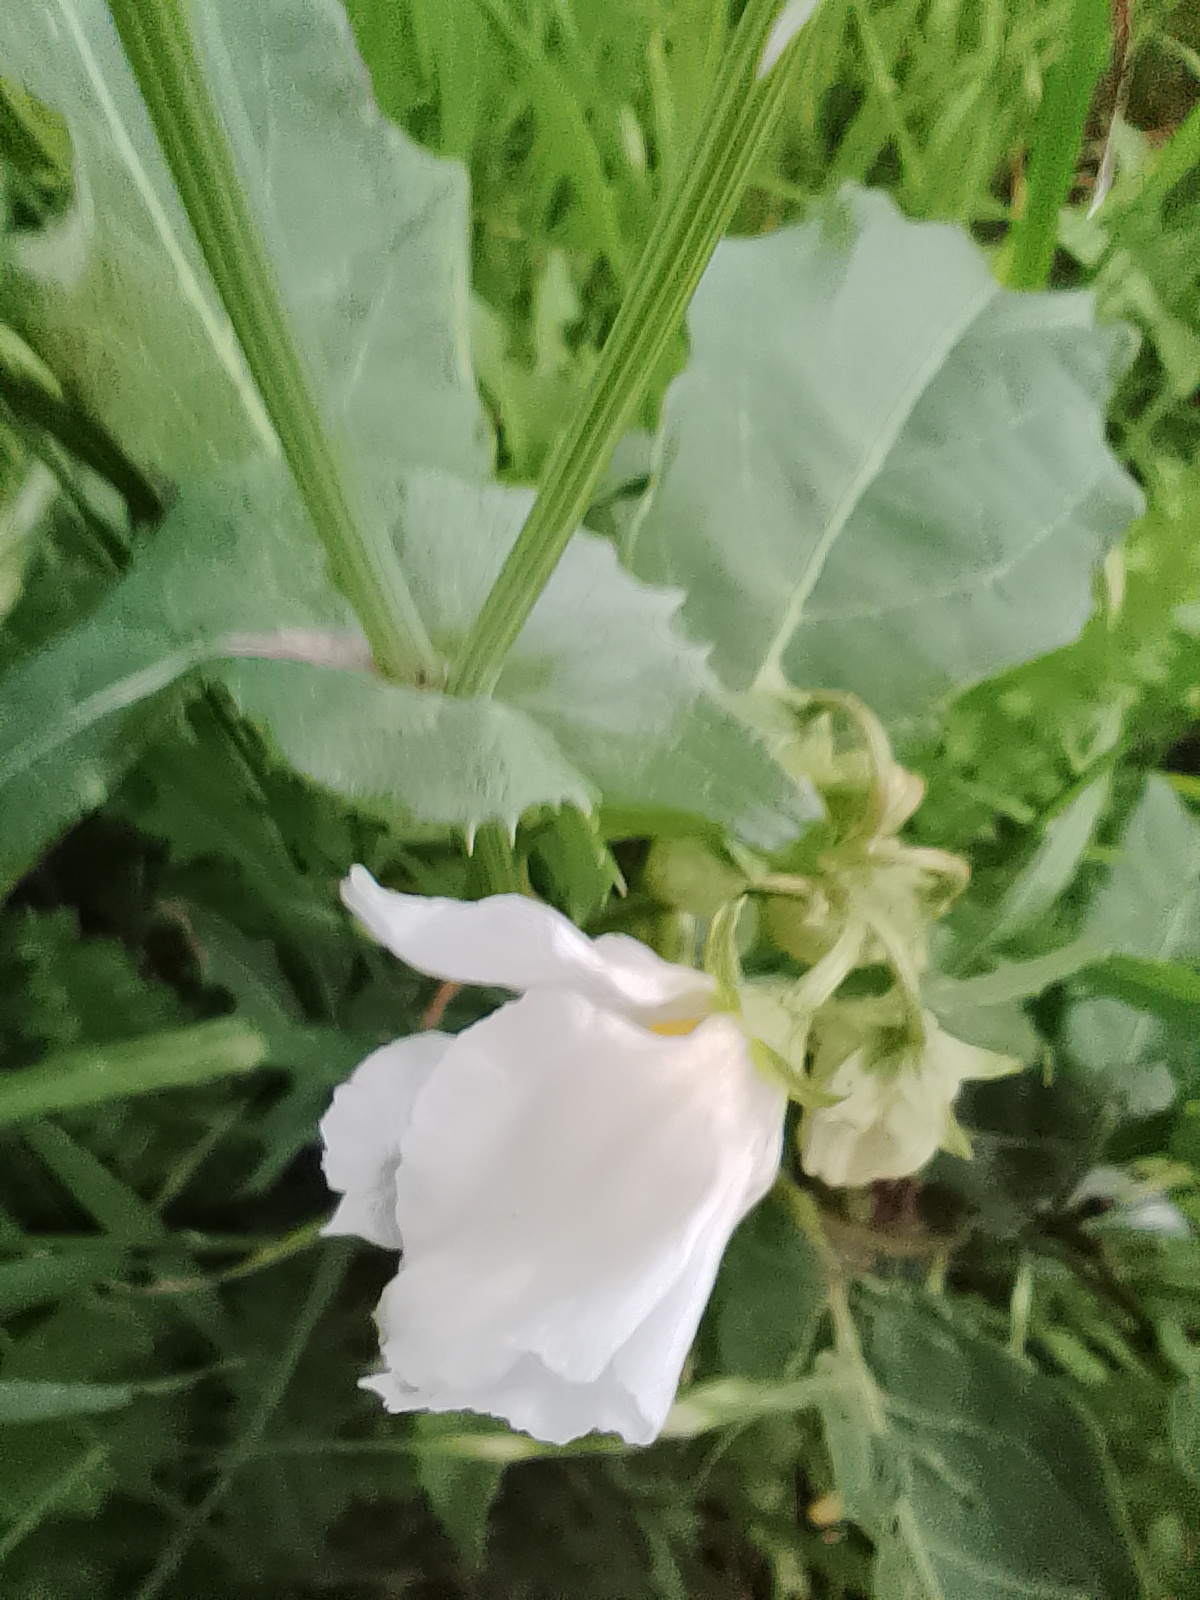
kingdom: Plantae
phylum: Tracheophyta
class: Magnoliopsida
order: Solanales
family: Solanaceae
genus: Solanum
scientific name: Solanum bonariense
